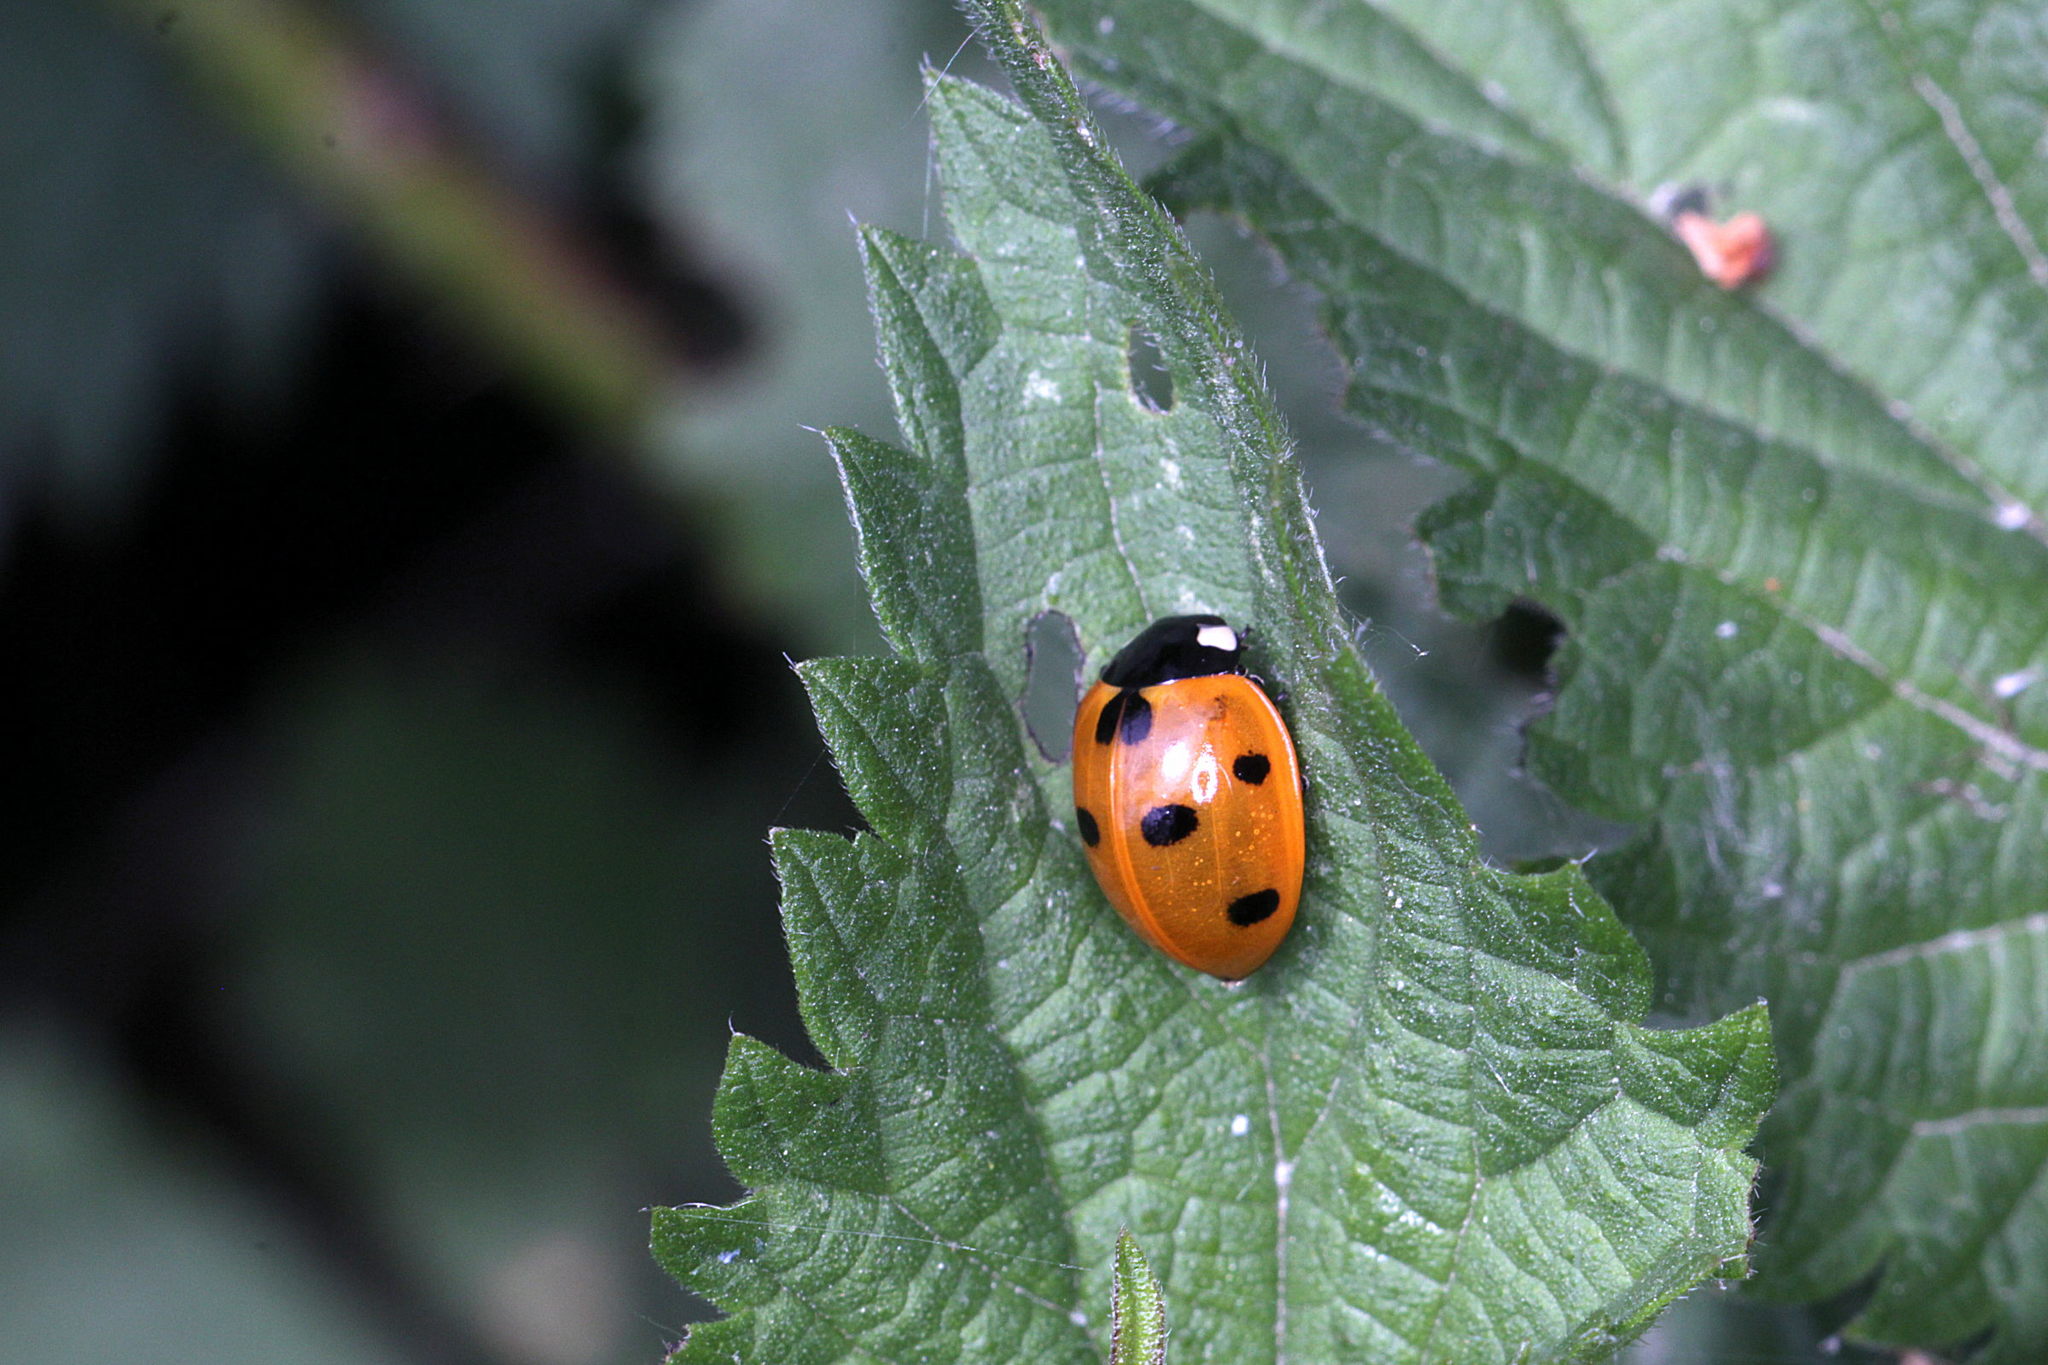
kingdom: Animalia
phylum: Arthropoda
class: Insecta
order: Coleoptera
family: Coccinellidae
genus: Coccinella
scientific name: Coccinella septempunctata
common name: Sevenspotted lady beetle
